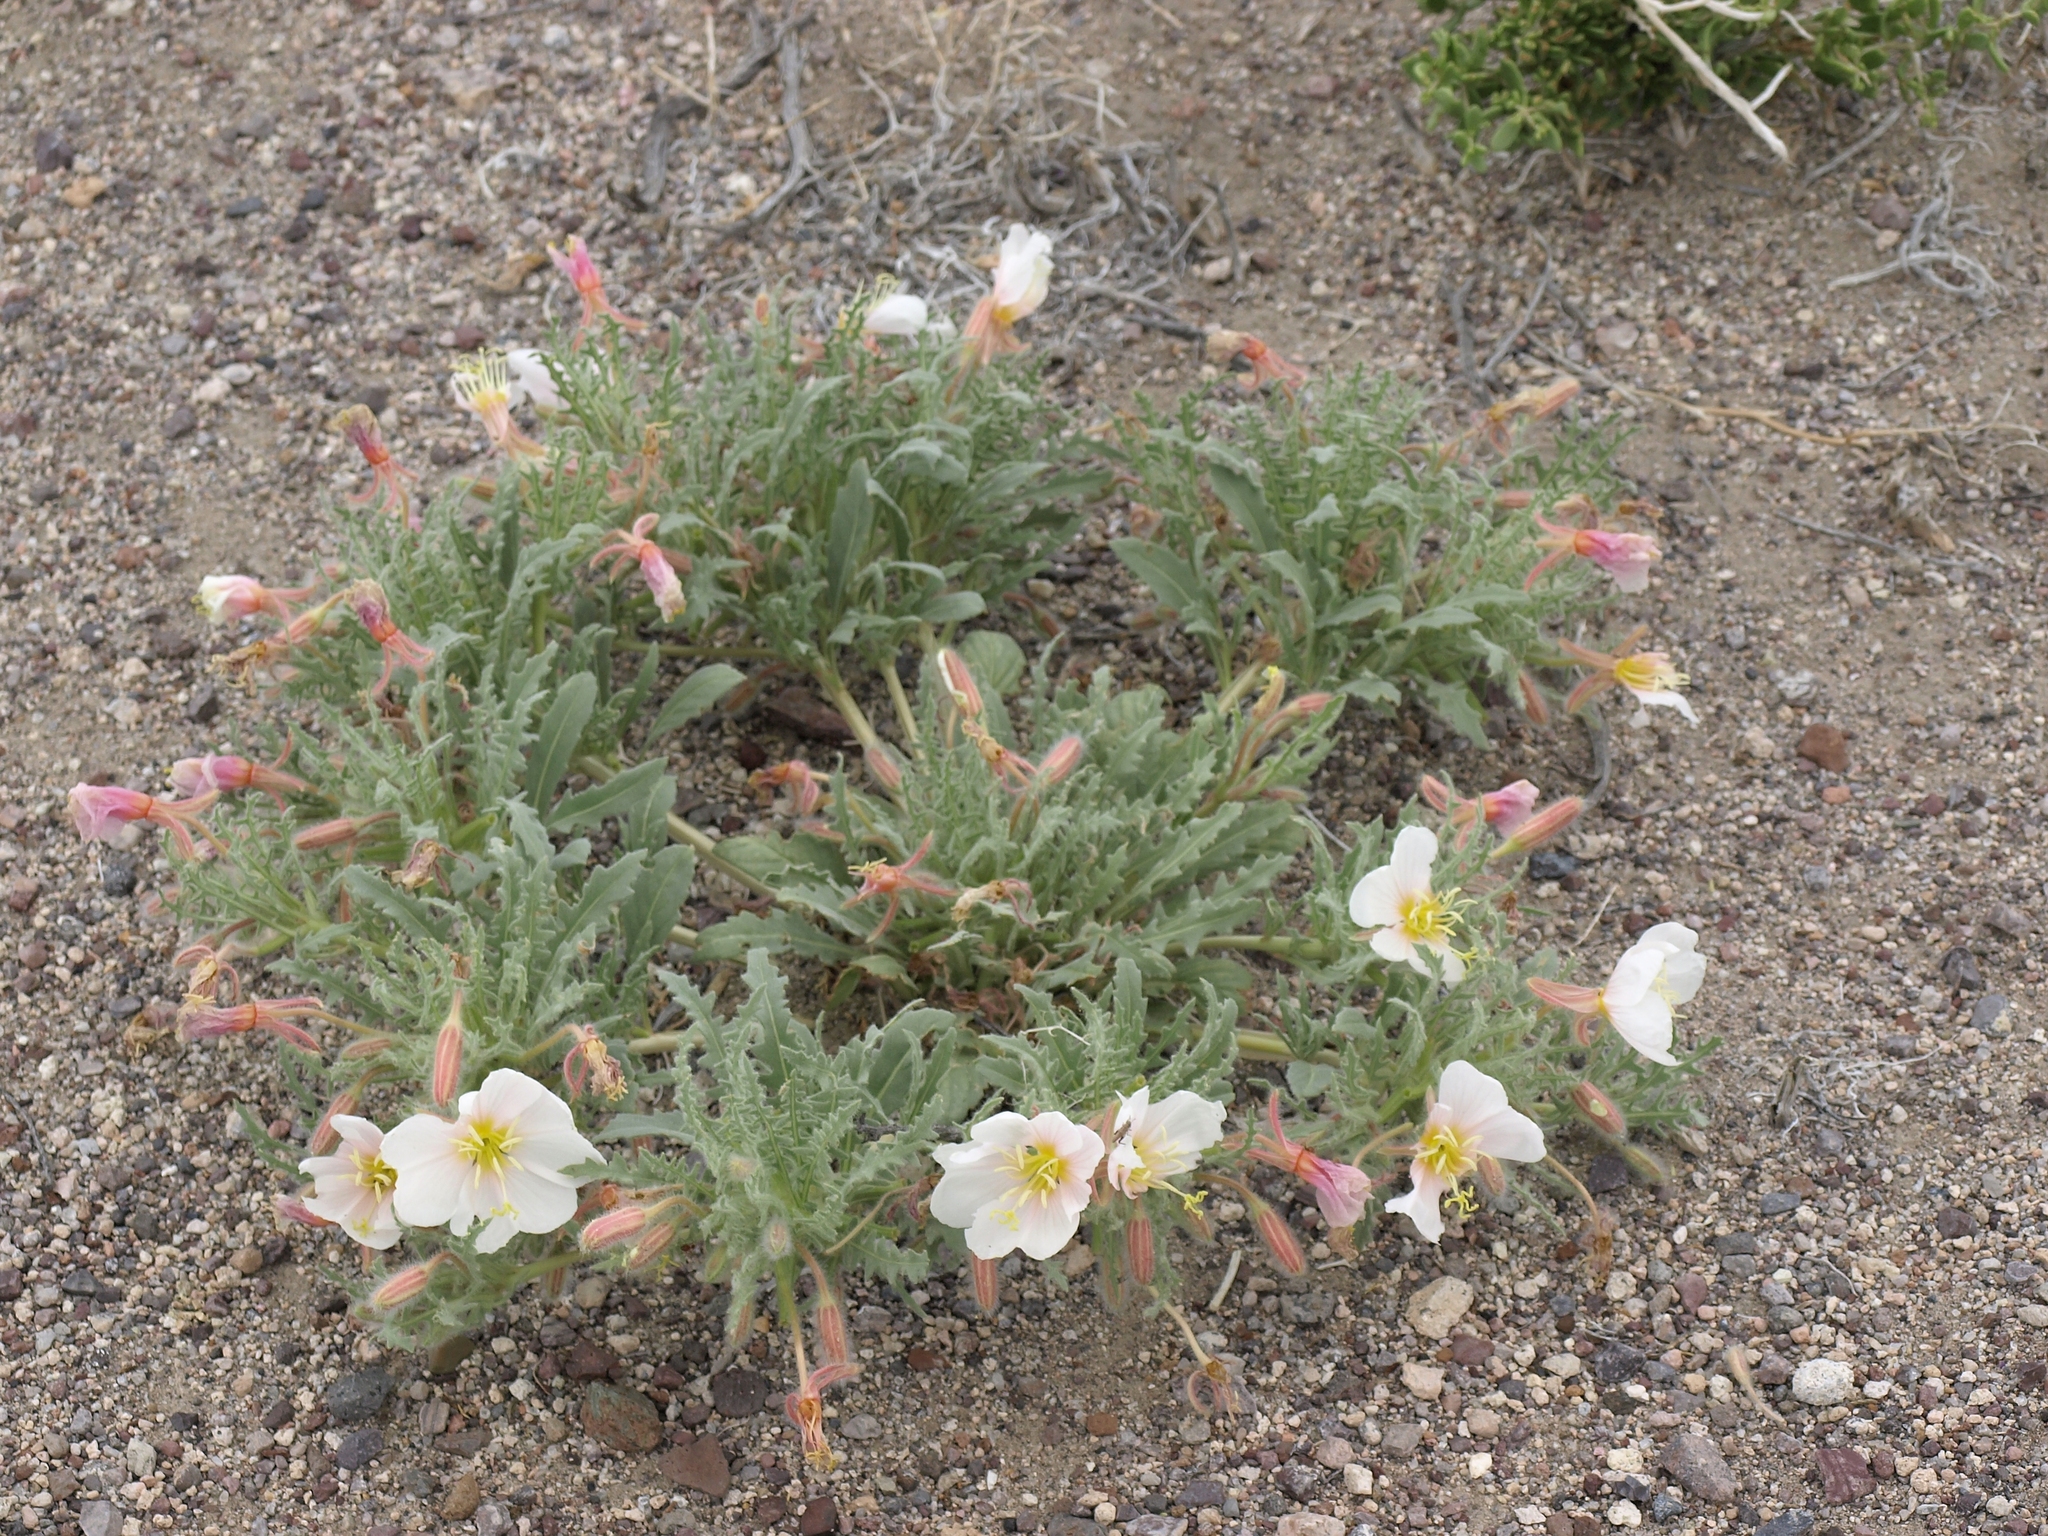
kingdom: Plantae
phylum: Tracheophyta
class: Magnoliopsida
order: Myrtales
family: Onagraceae
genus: Oenothera
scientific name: Oenothera deltoides
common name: Basket evening-primrose
